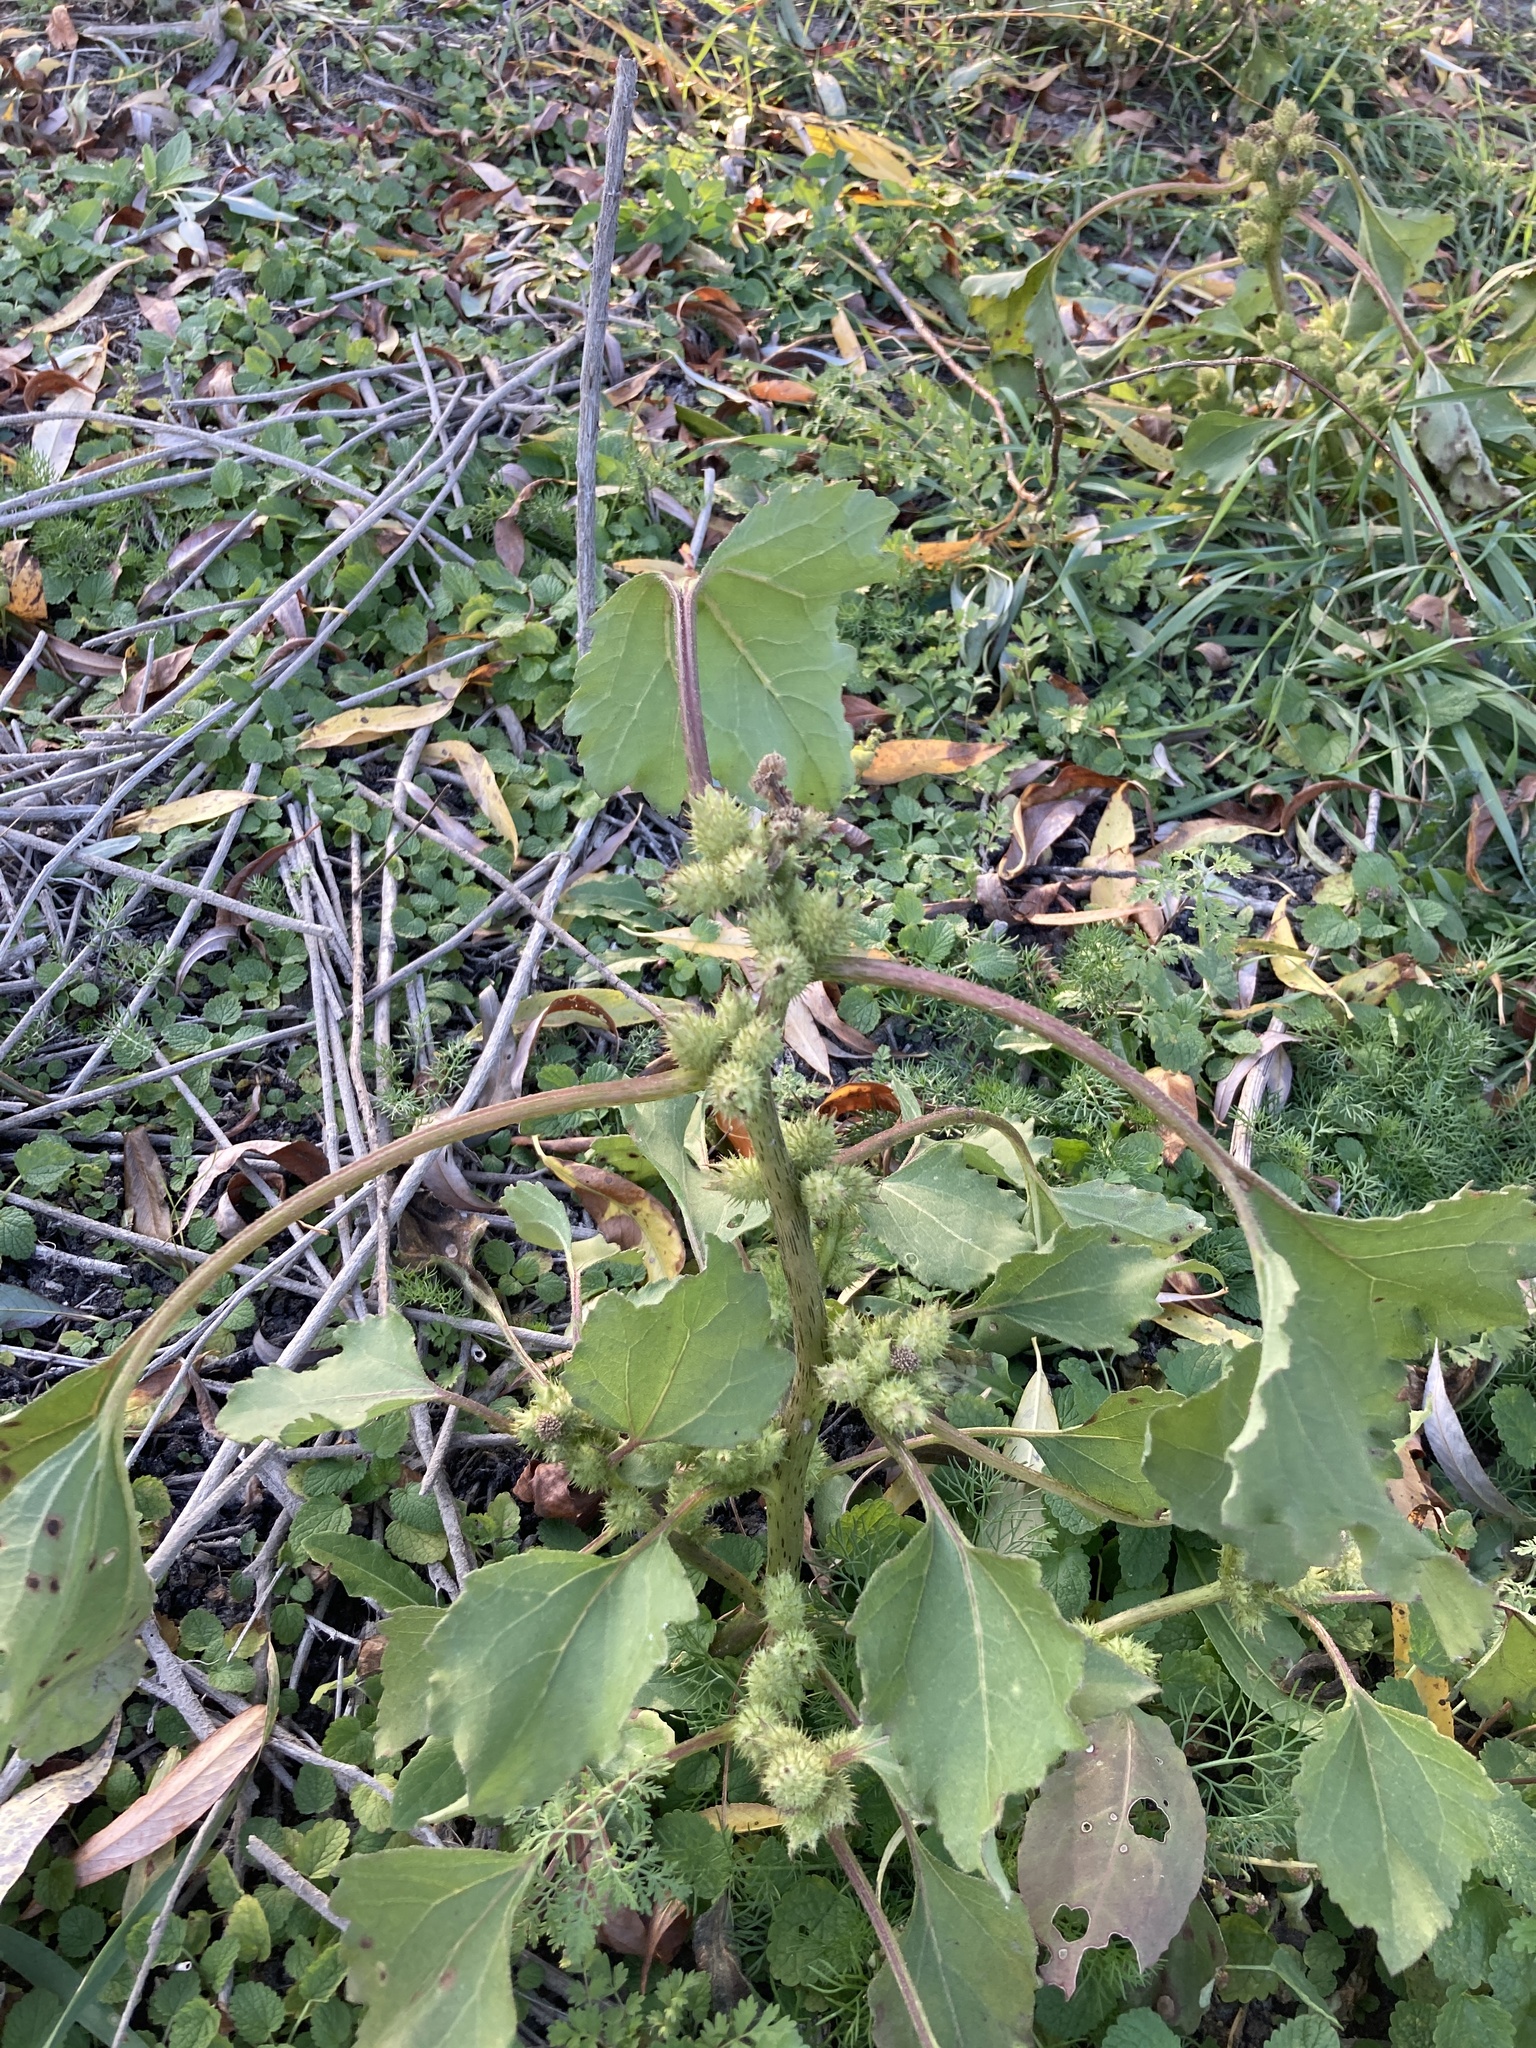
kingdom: Plantae
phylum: Tracheophyta
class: Magnoliopsida
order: Asterales
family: Asteraceae
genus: Xanthium
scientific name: Xanthium orientale
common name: Californian burr
